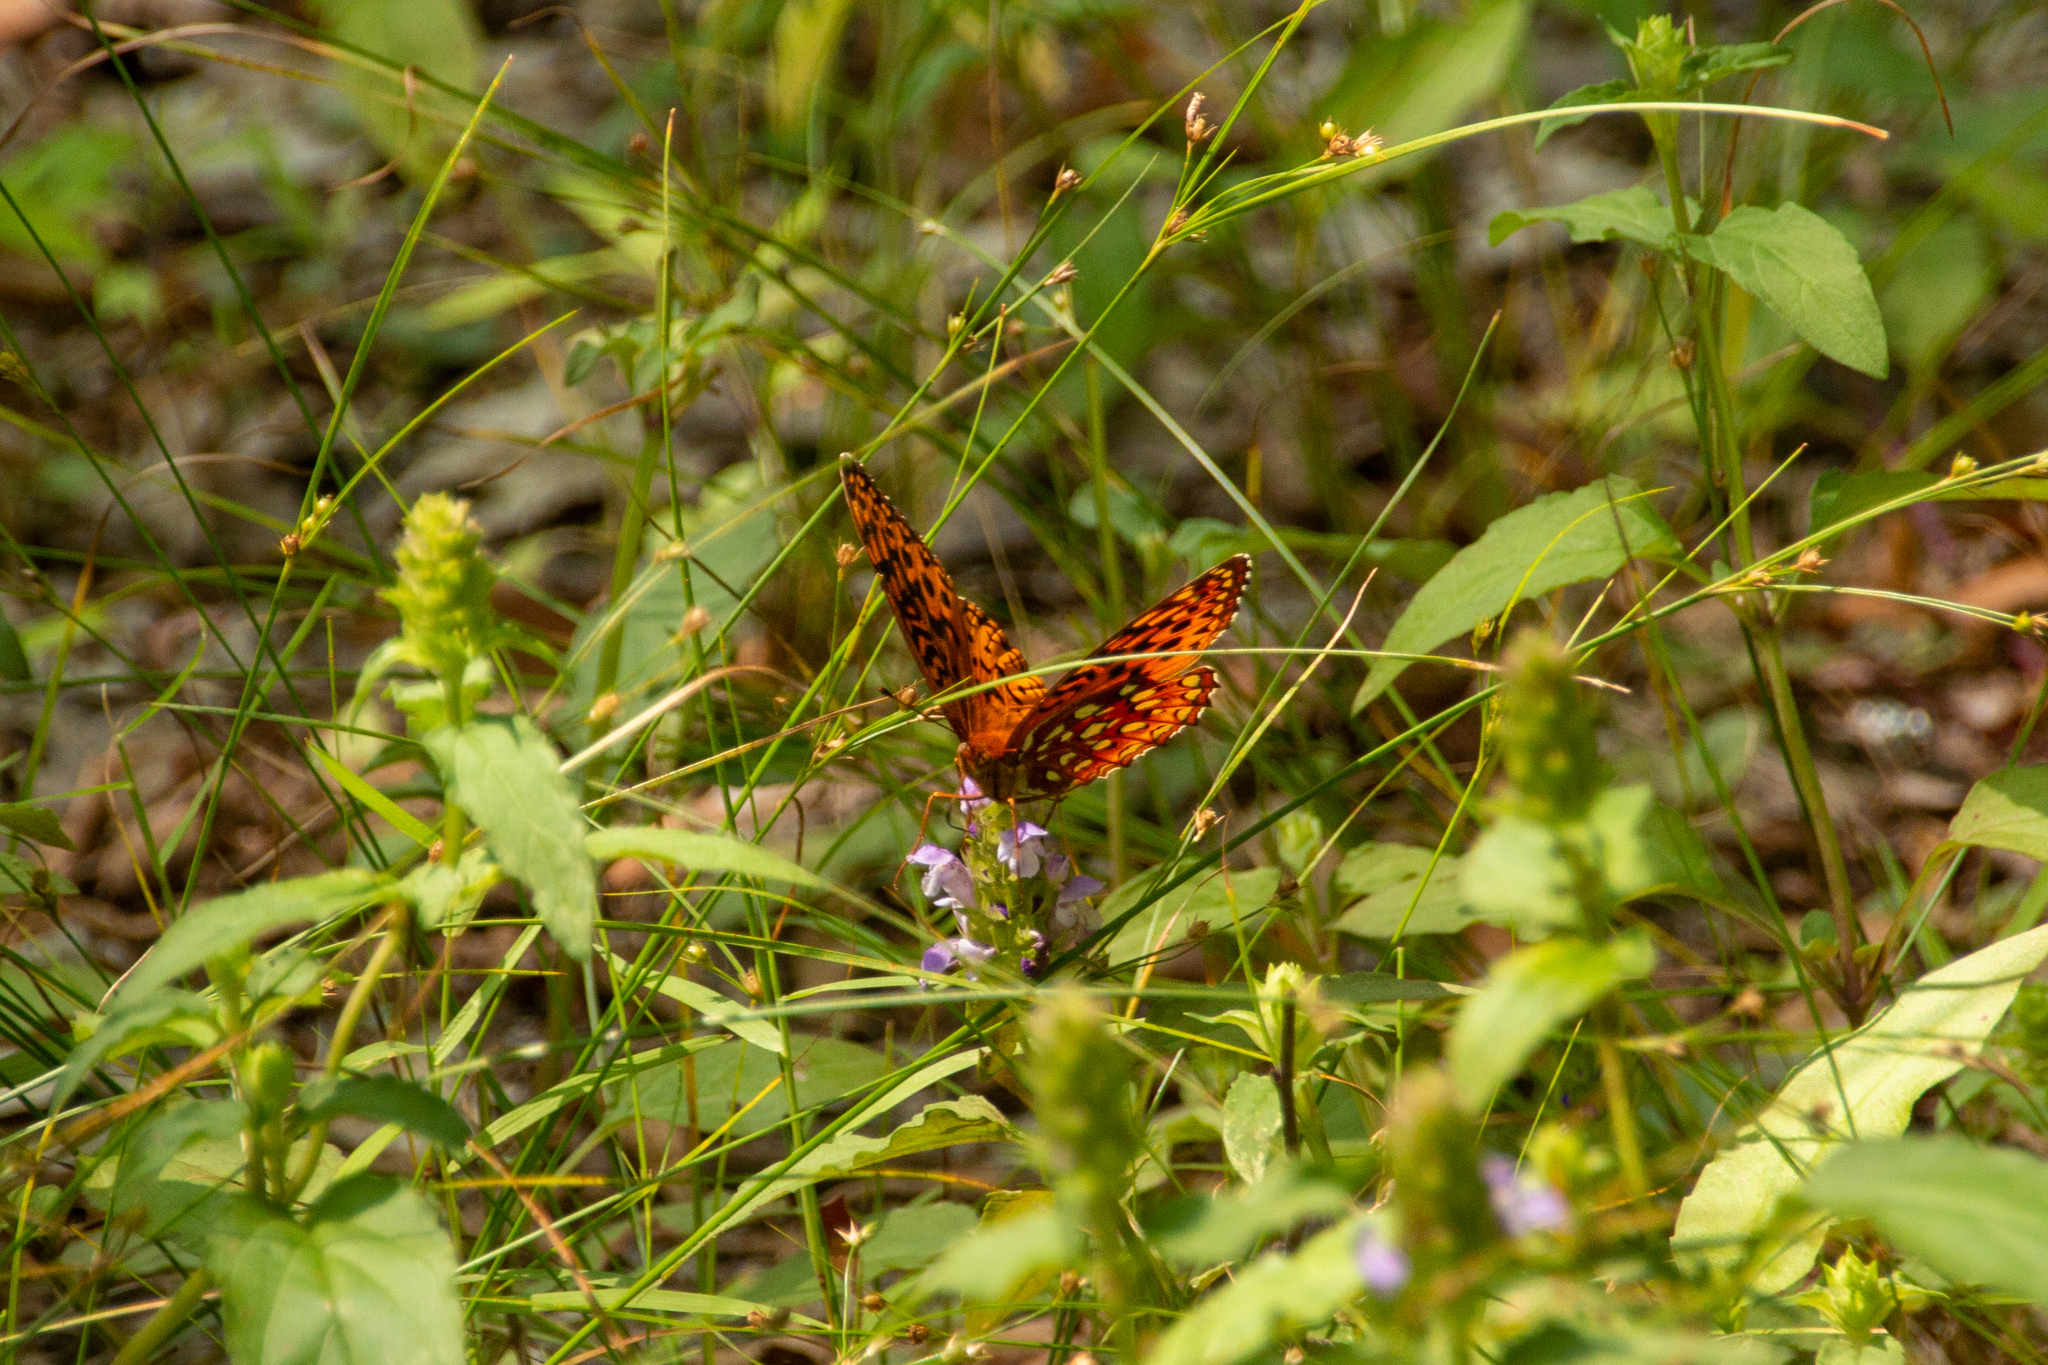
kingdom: Animalia
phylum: Arthropoda
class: Insecta
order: Lepidoptera
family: Nymphalidae
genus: Speyeria
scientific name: Speyeria aphrodite
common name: Aphrodite friitllary
